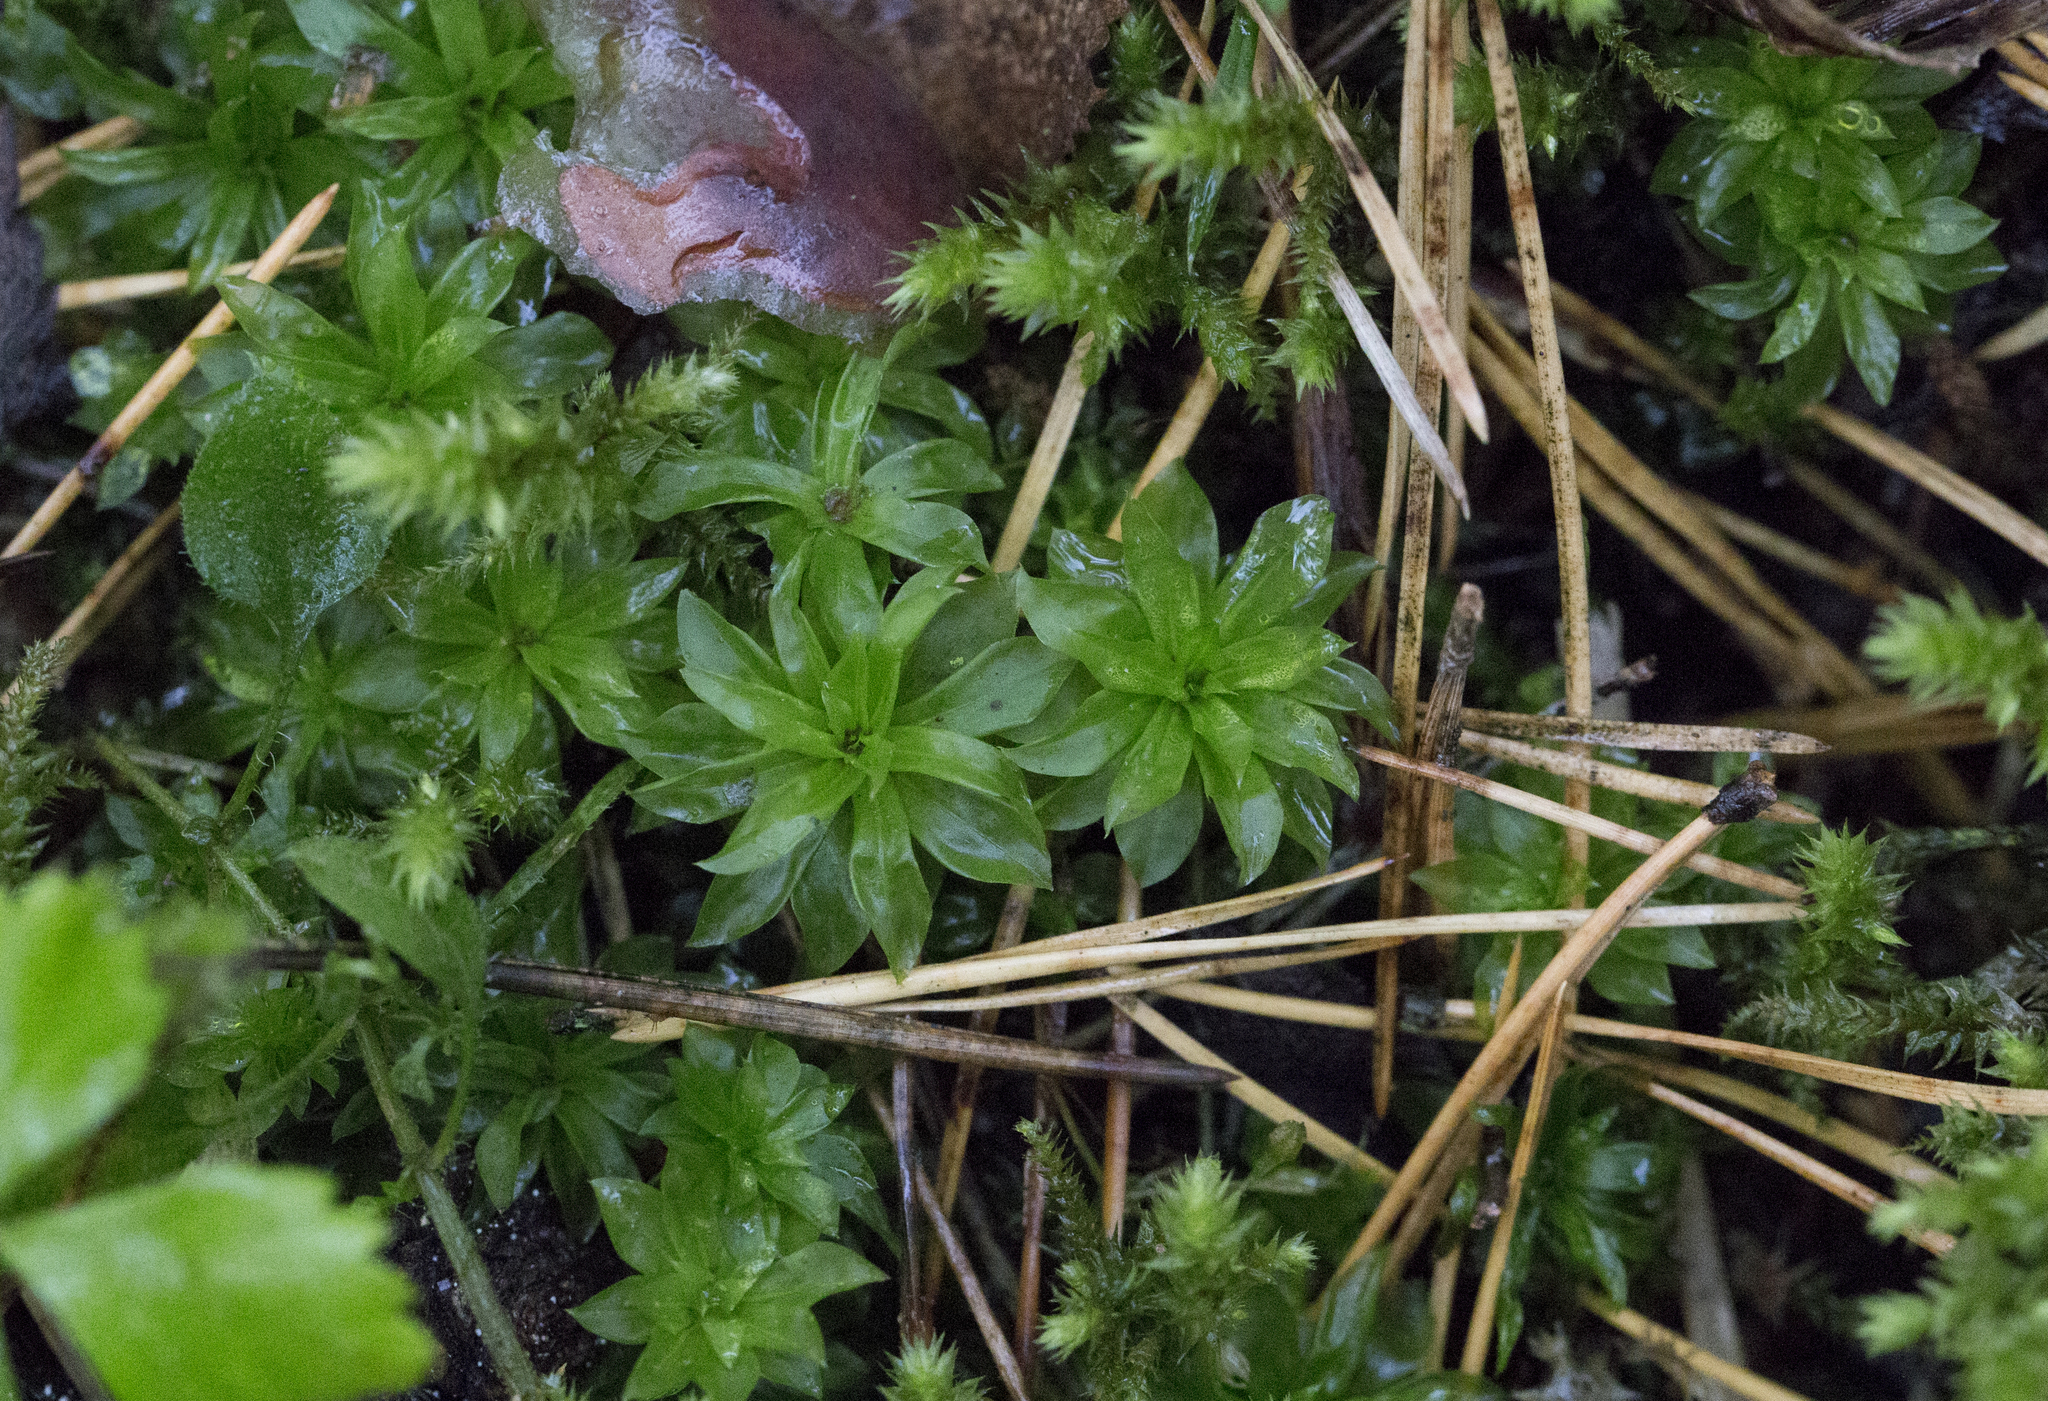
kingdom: Plantae
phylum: Bryophyta
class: Bryopsida
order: Bryales
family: Bryaceae
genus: Rhodobryum
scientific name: Rhodobryum roseum
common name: Rose-moss
